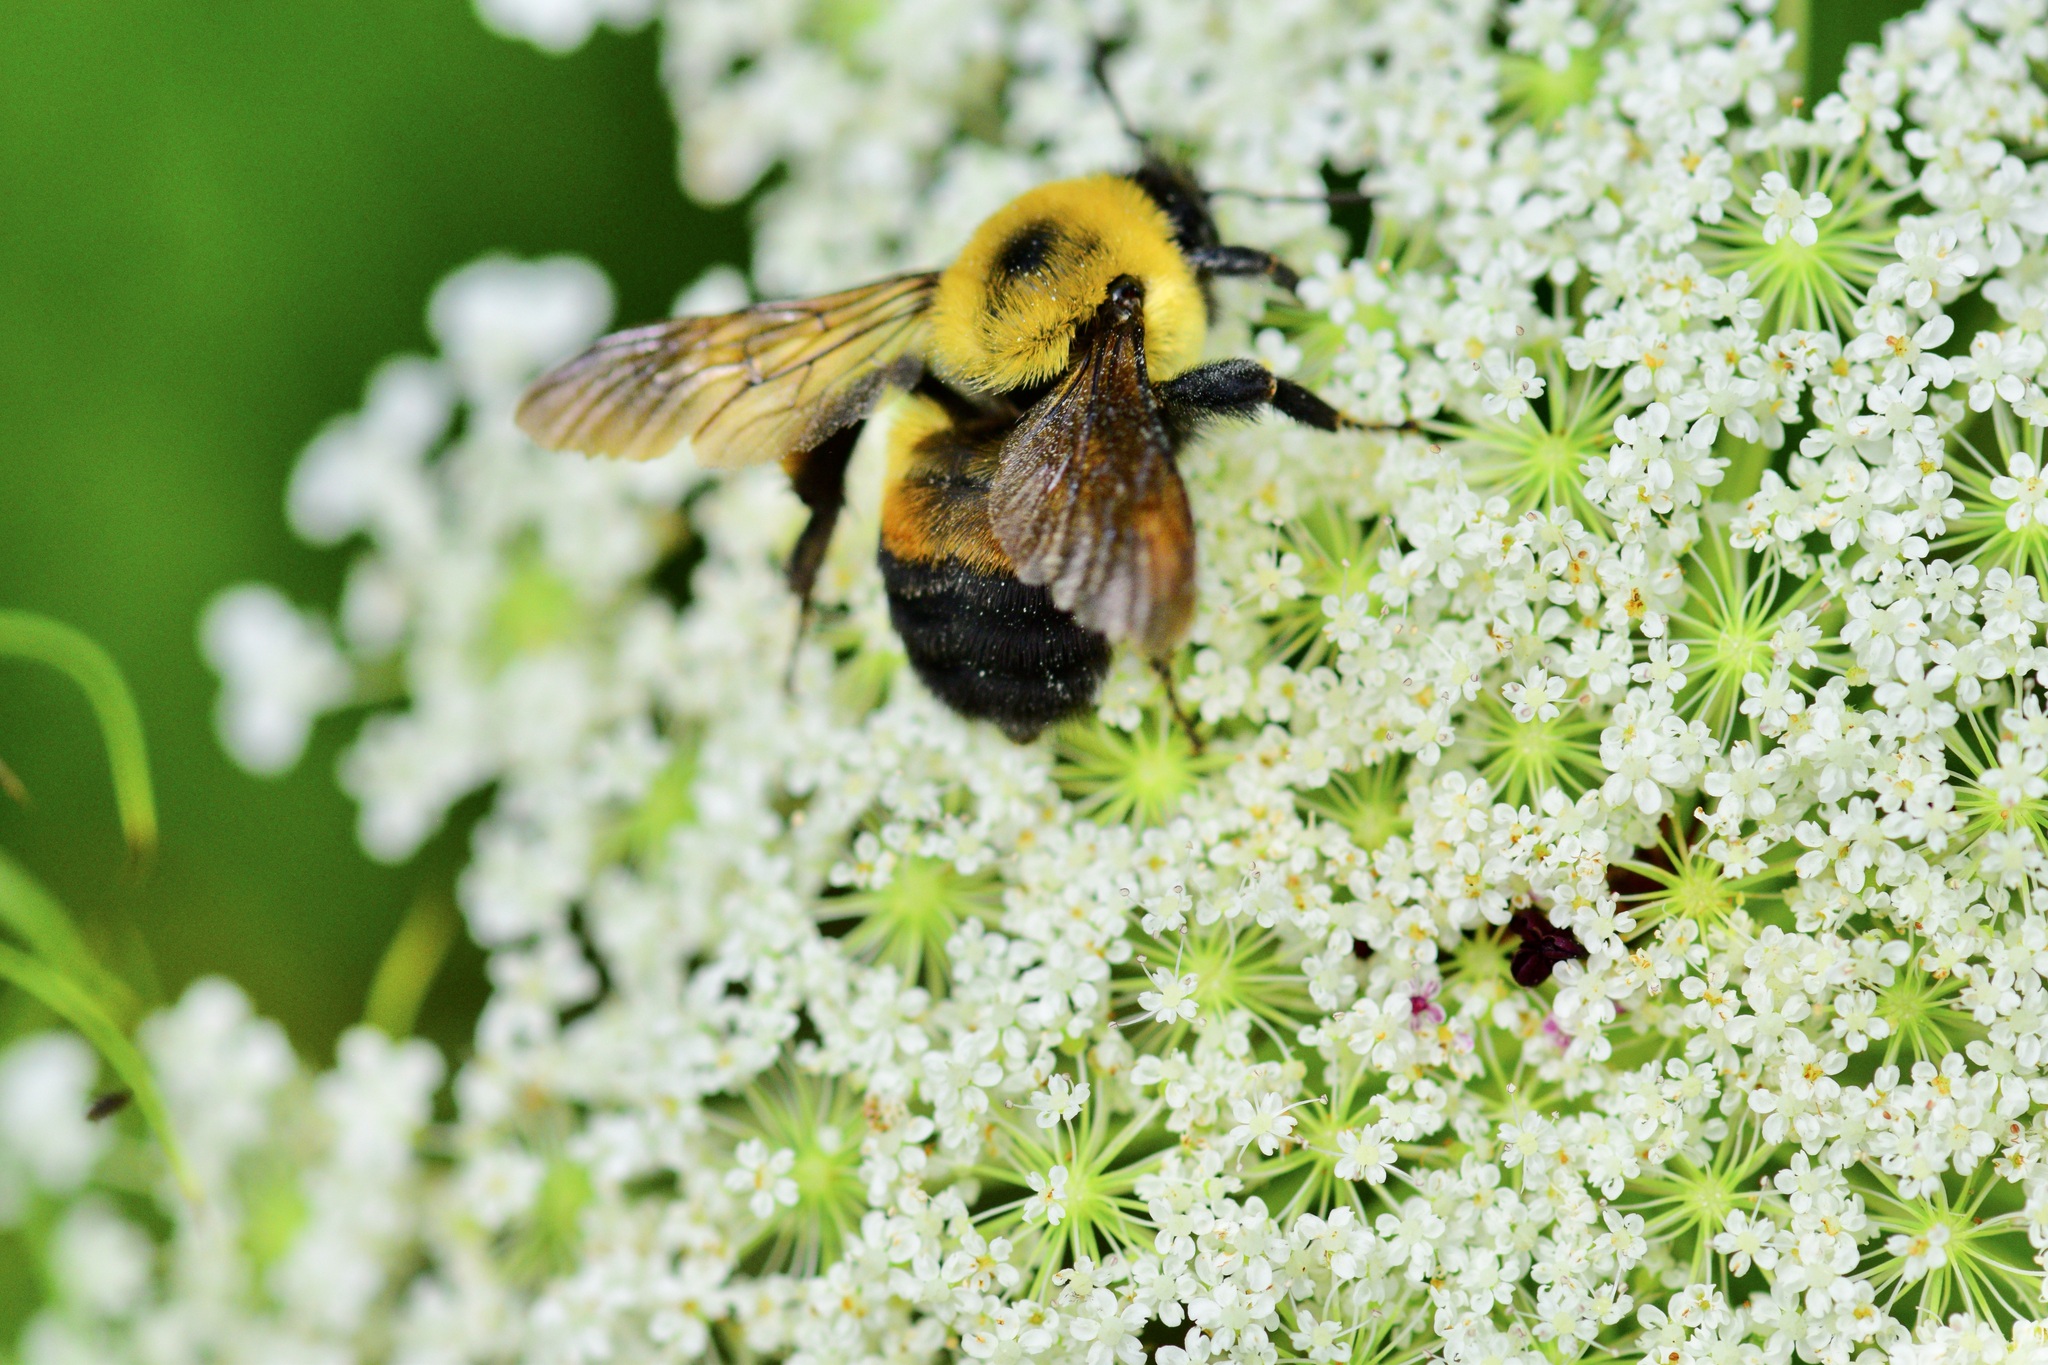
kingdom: Animalia
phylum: Arthropoda
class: Insecta
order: Hymenoptera
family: Apidae
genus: Bombus
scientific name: Bombus griseocollis
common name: Brown-belted bumble bee
